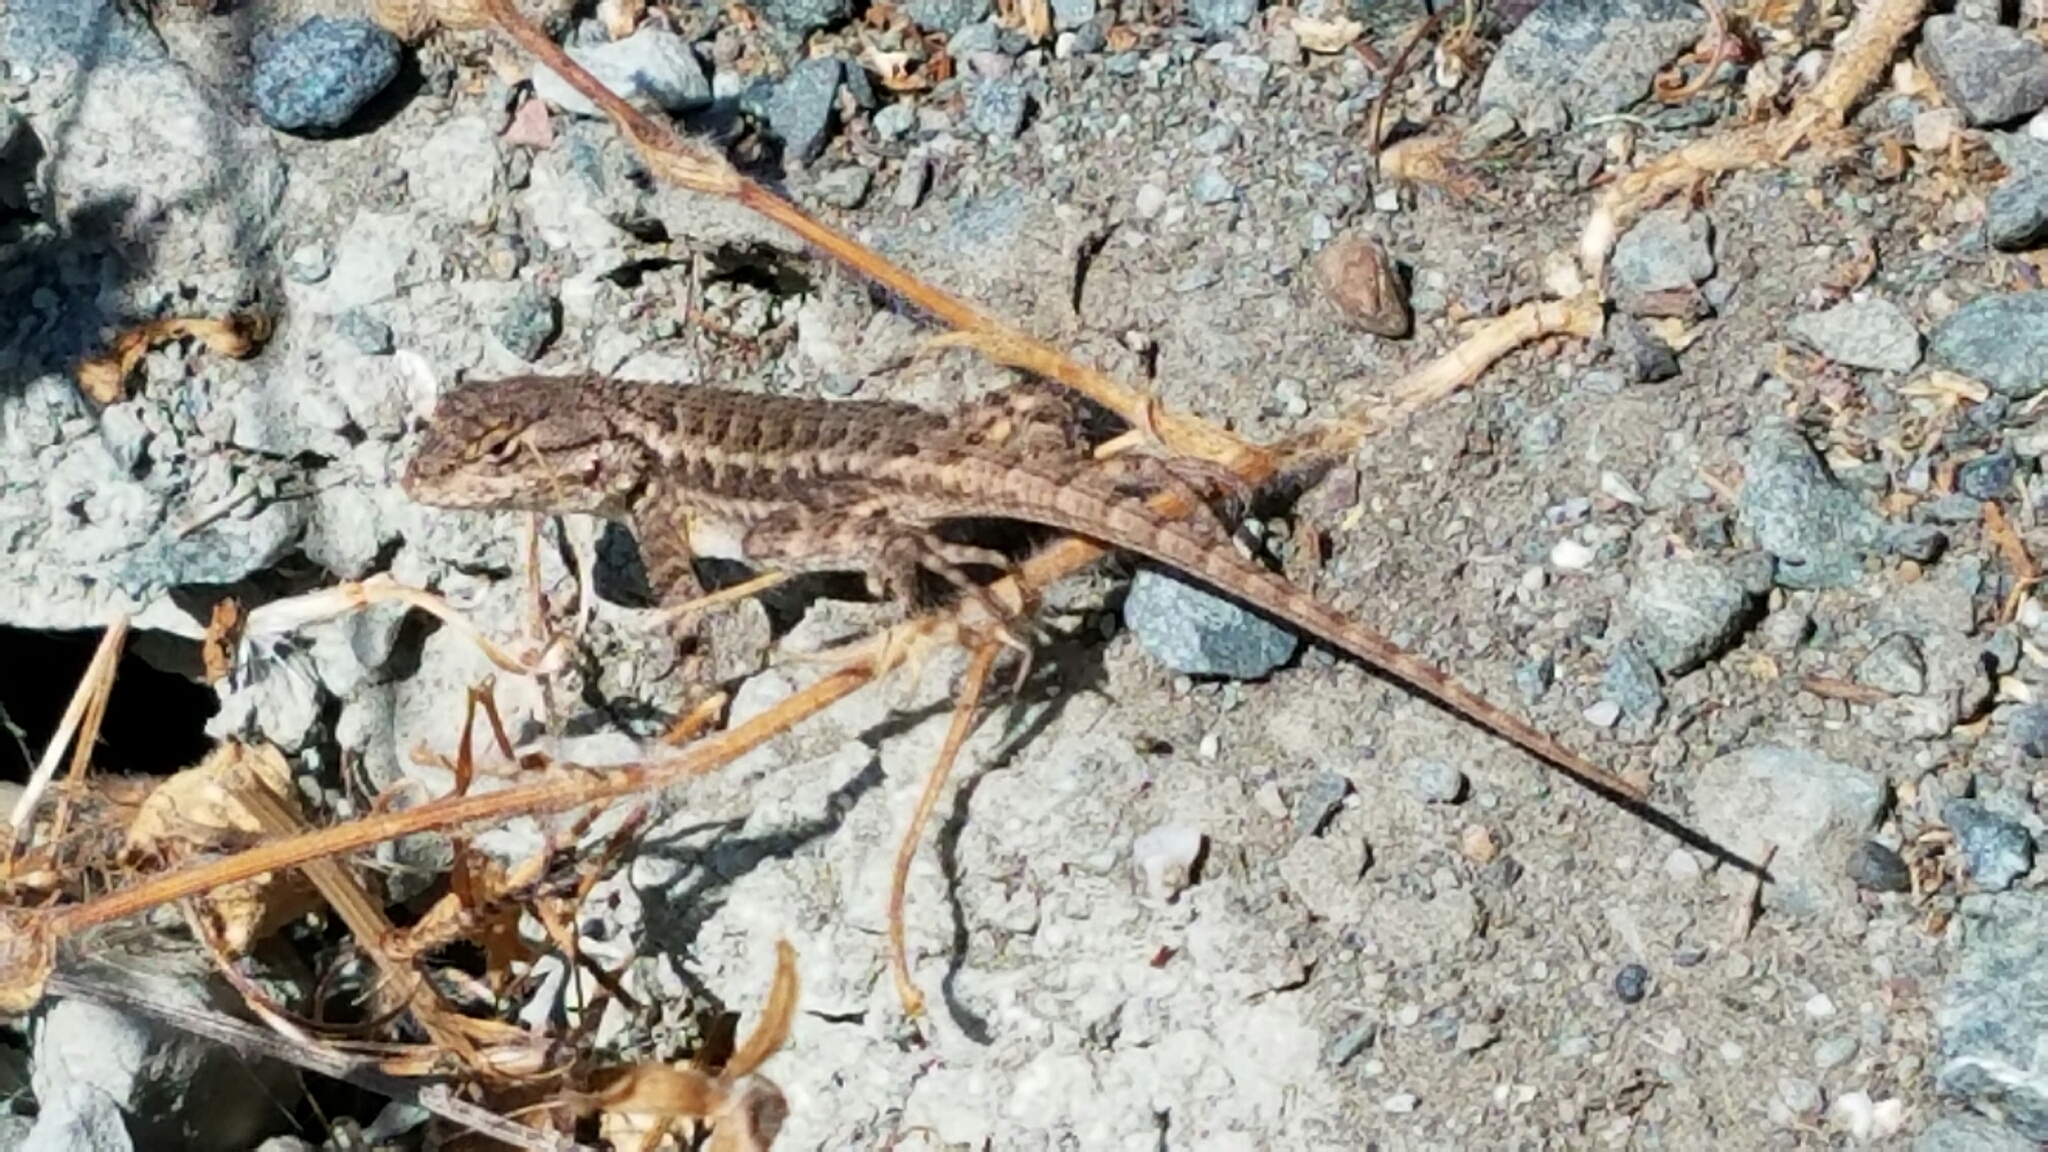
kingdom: Animalia
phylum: Chordata
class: Squamata
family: Phrynosomatidae
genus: Sceloporus
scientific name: Sceloporus occidentalis
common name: Western fence lizard
